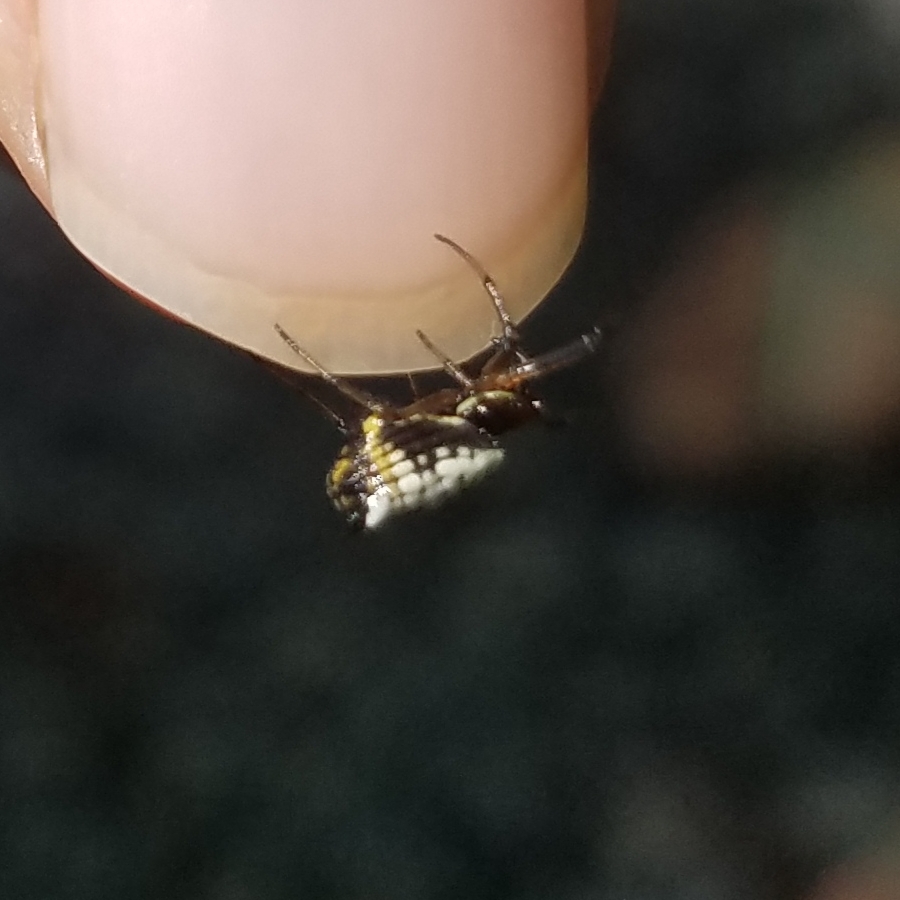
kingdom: Animalia
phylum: Arthropoda
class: Arachnida
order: Araneae
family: Araneidae
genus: Micrathena
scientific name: Micrathena mitrata
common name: Orb weavers
